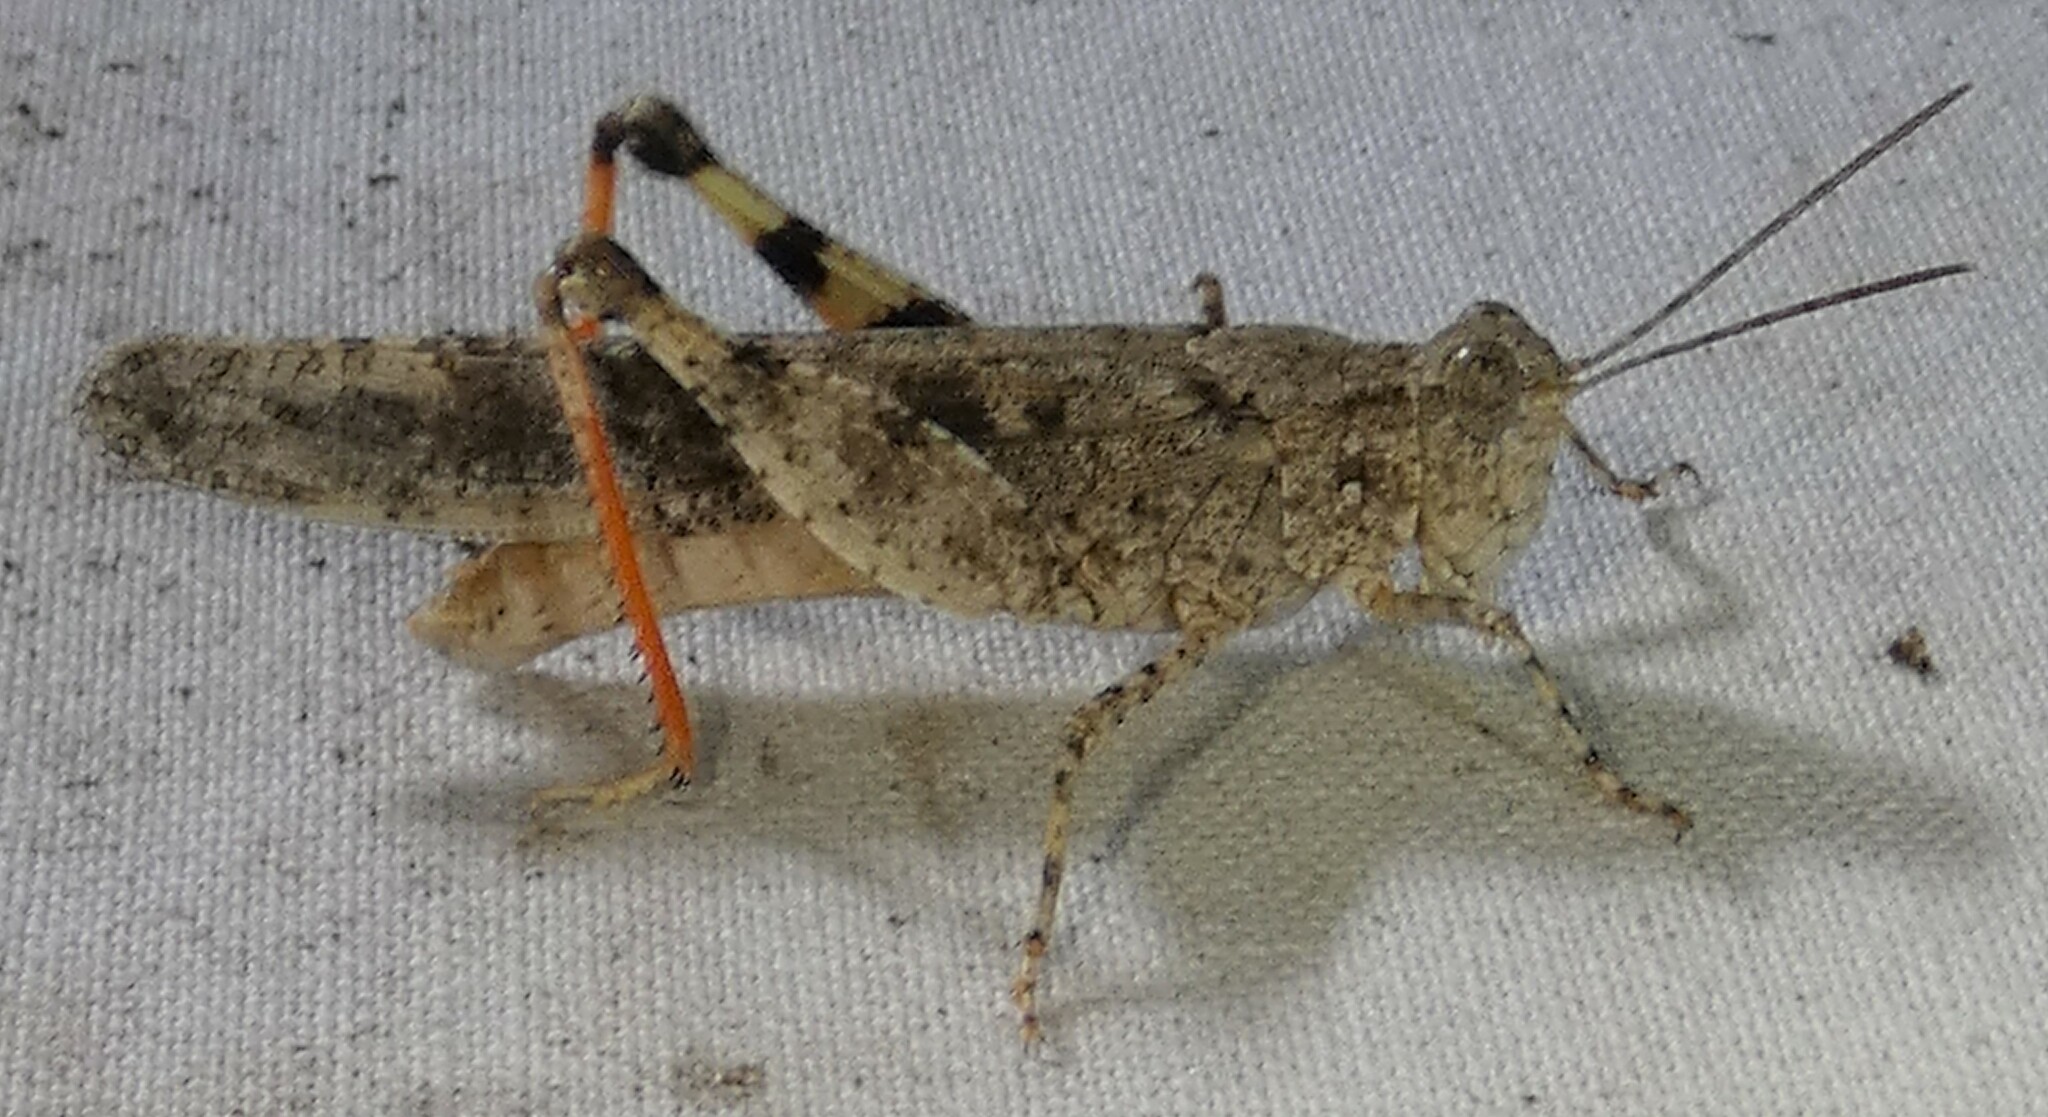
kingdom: Animalia
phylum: Arthropoda
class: Insecta
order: Orthoptera
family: Acrididae
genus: Trimerotropis
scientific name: Trimerotropis maritima
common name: Seaside locust
